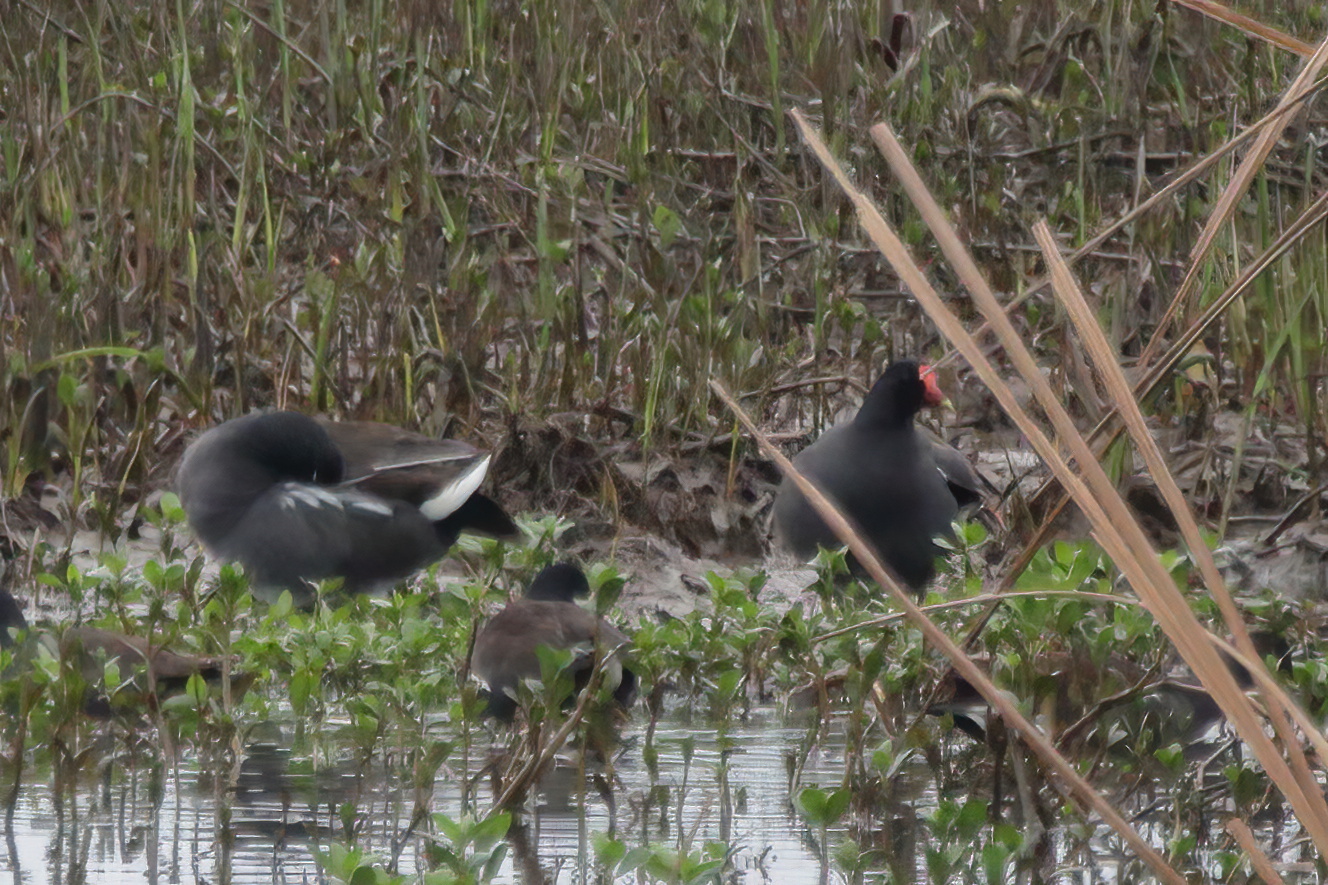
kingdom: Animalia
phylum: Chordata
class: Aves
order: Gruiformes
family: Rallidae
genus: Gallinula
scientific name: Gallinula chloropus
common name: Common moorhen
